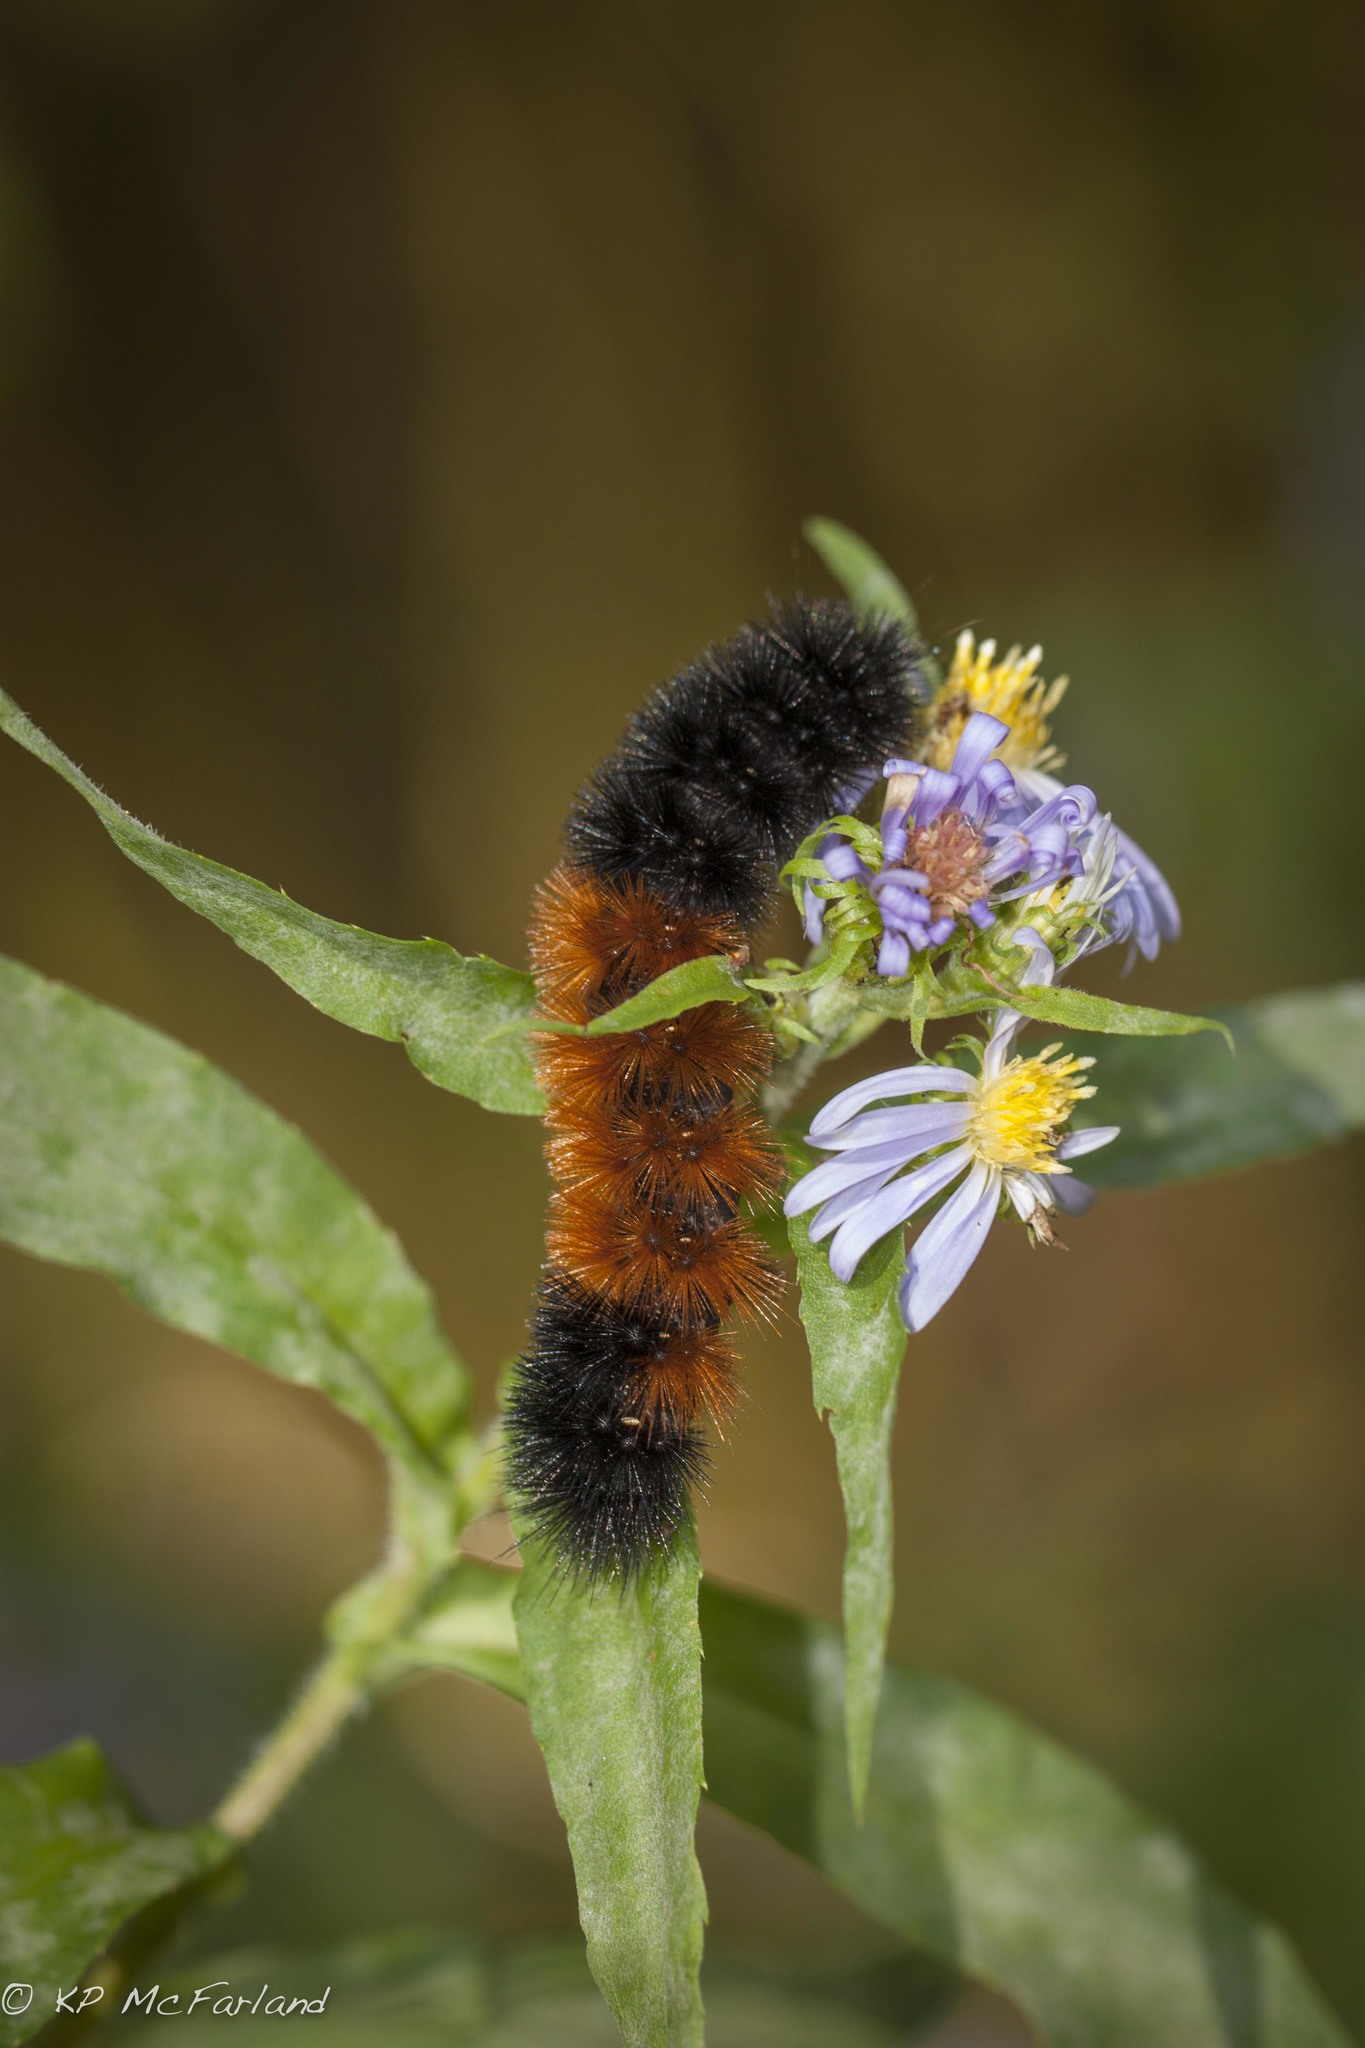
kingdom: Animalia
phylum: Arthropoda
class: Insecta
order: Lepidoptera
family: Erebidae
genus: Pyrrharctia
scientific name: Pyrrharctia isabella
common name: Isabella tiger moth
